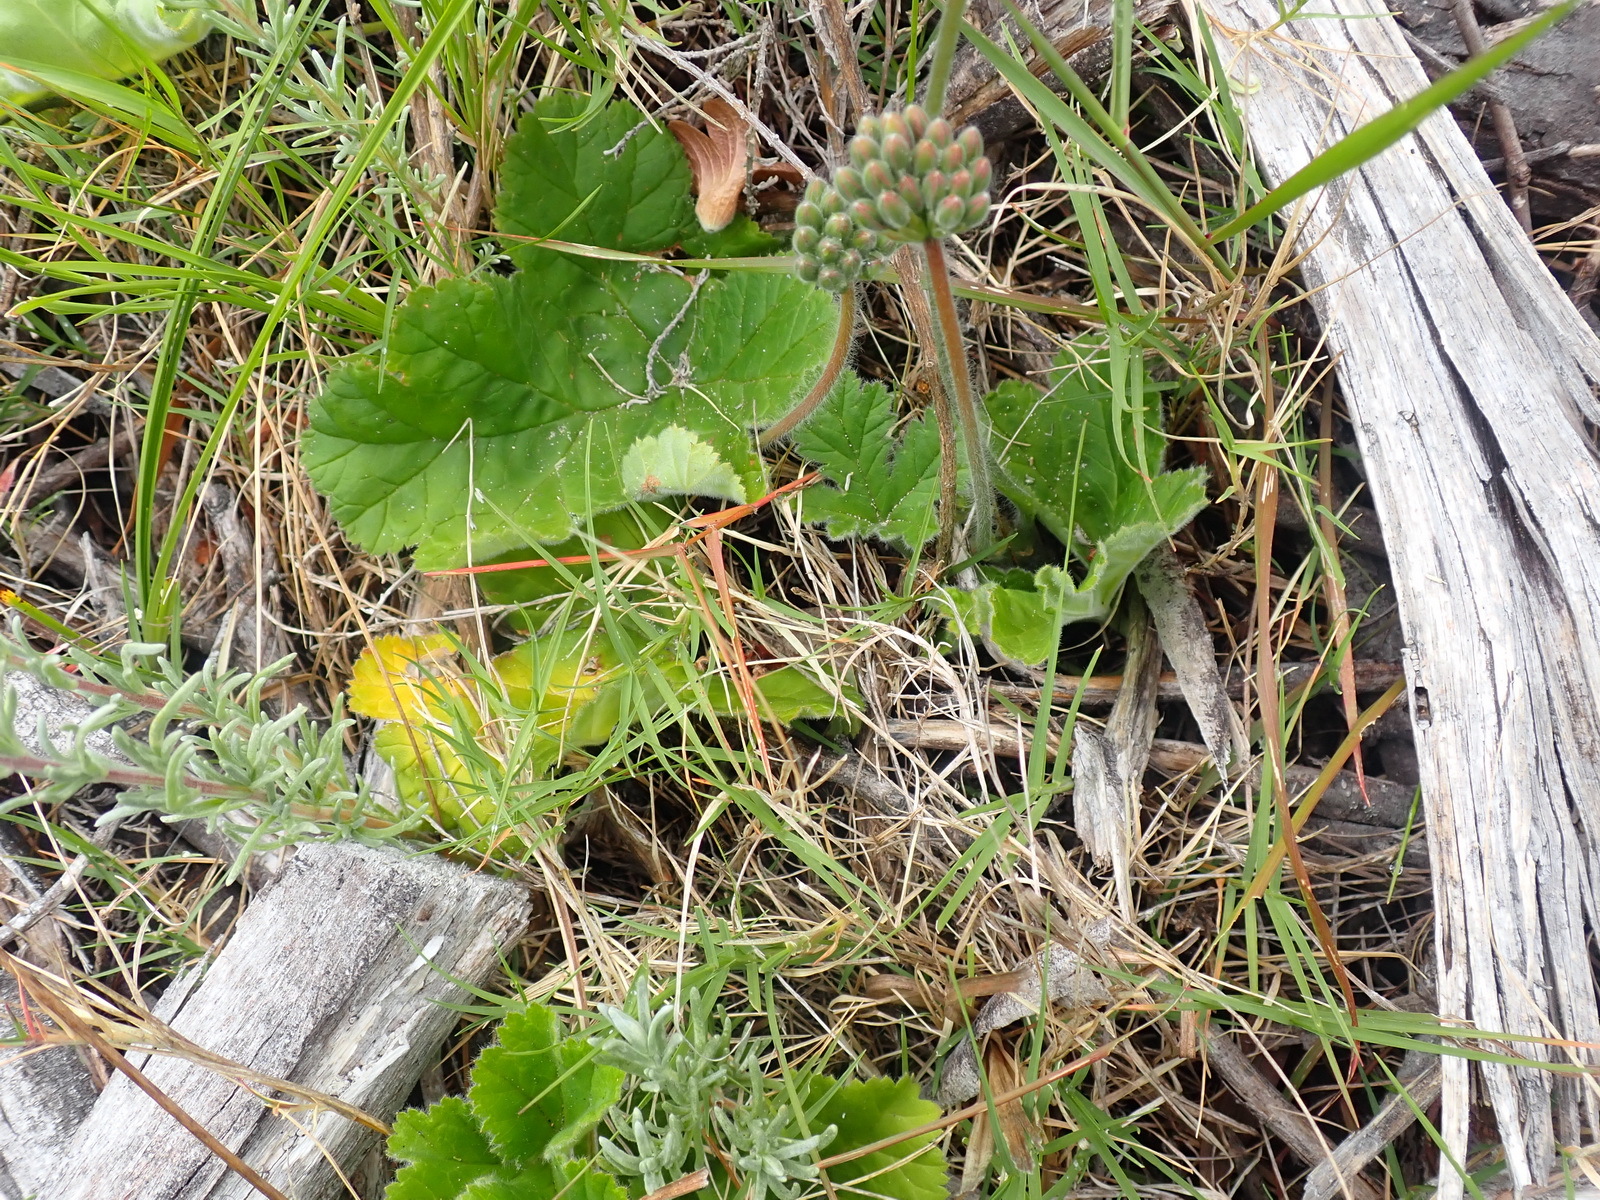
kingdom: Plantae
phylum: Tracheophyta
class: Magnoliopsida
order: Geraniales
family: Geraniaceae
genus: Pelargonium
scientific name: Pelargonium lobatum
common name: Vine-leaf pelargonium
